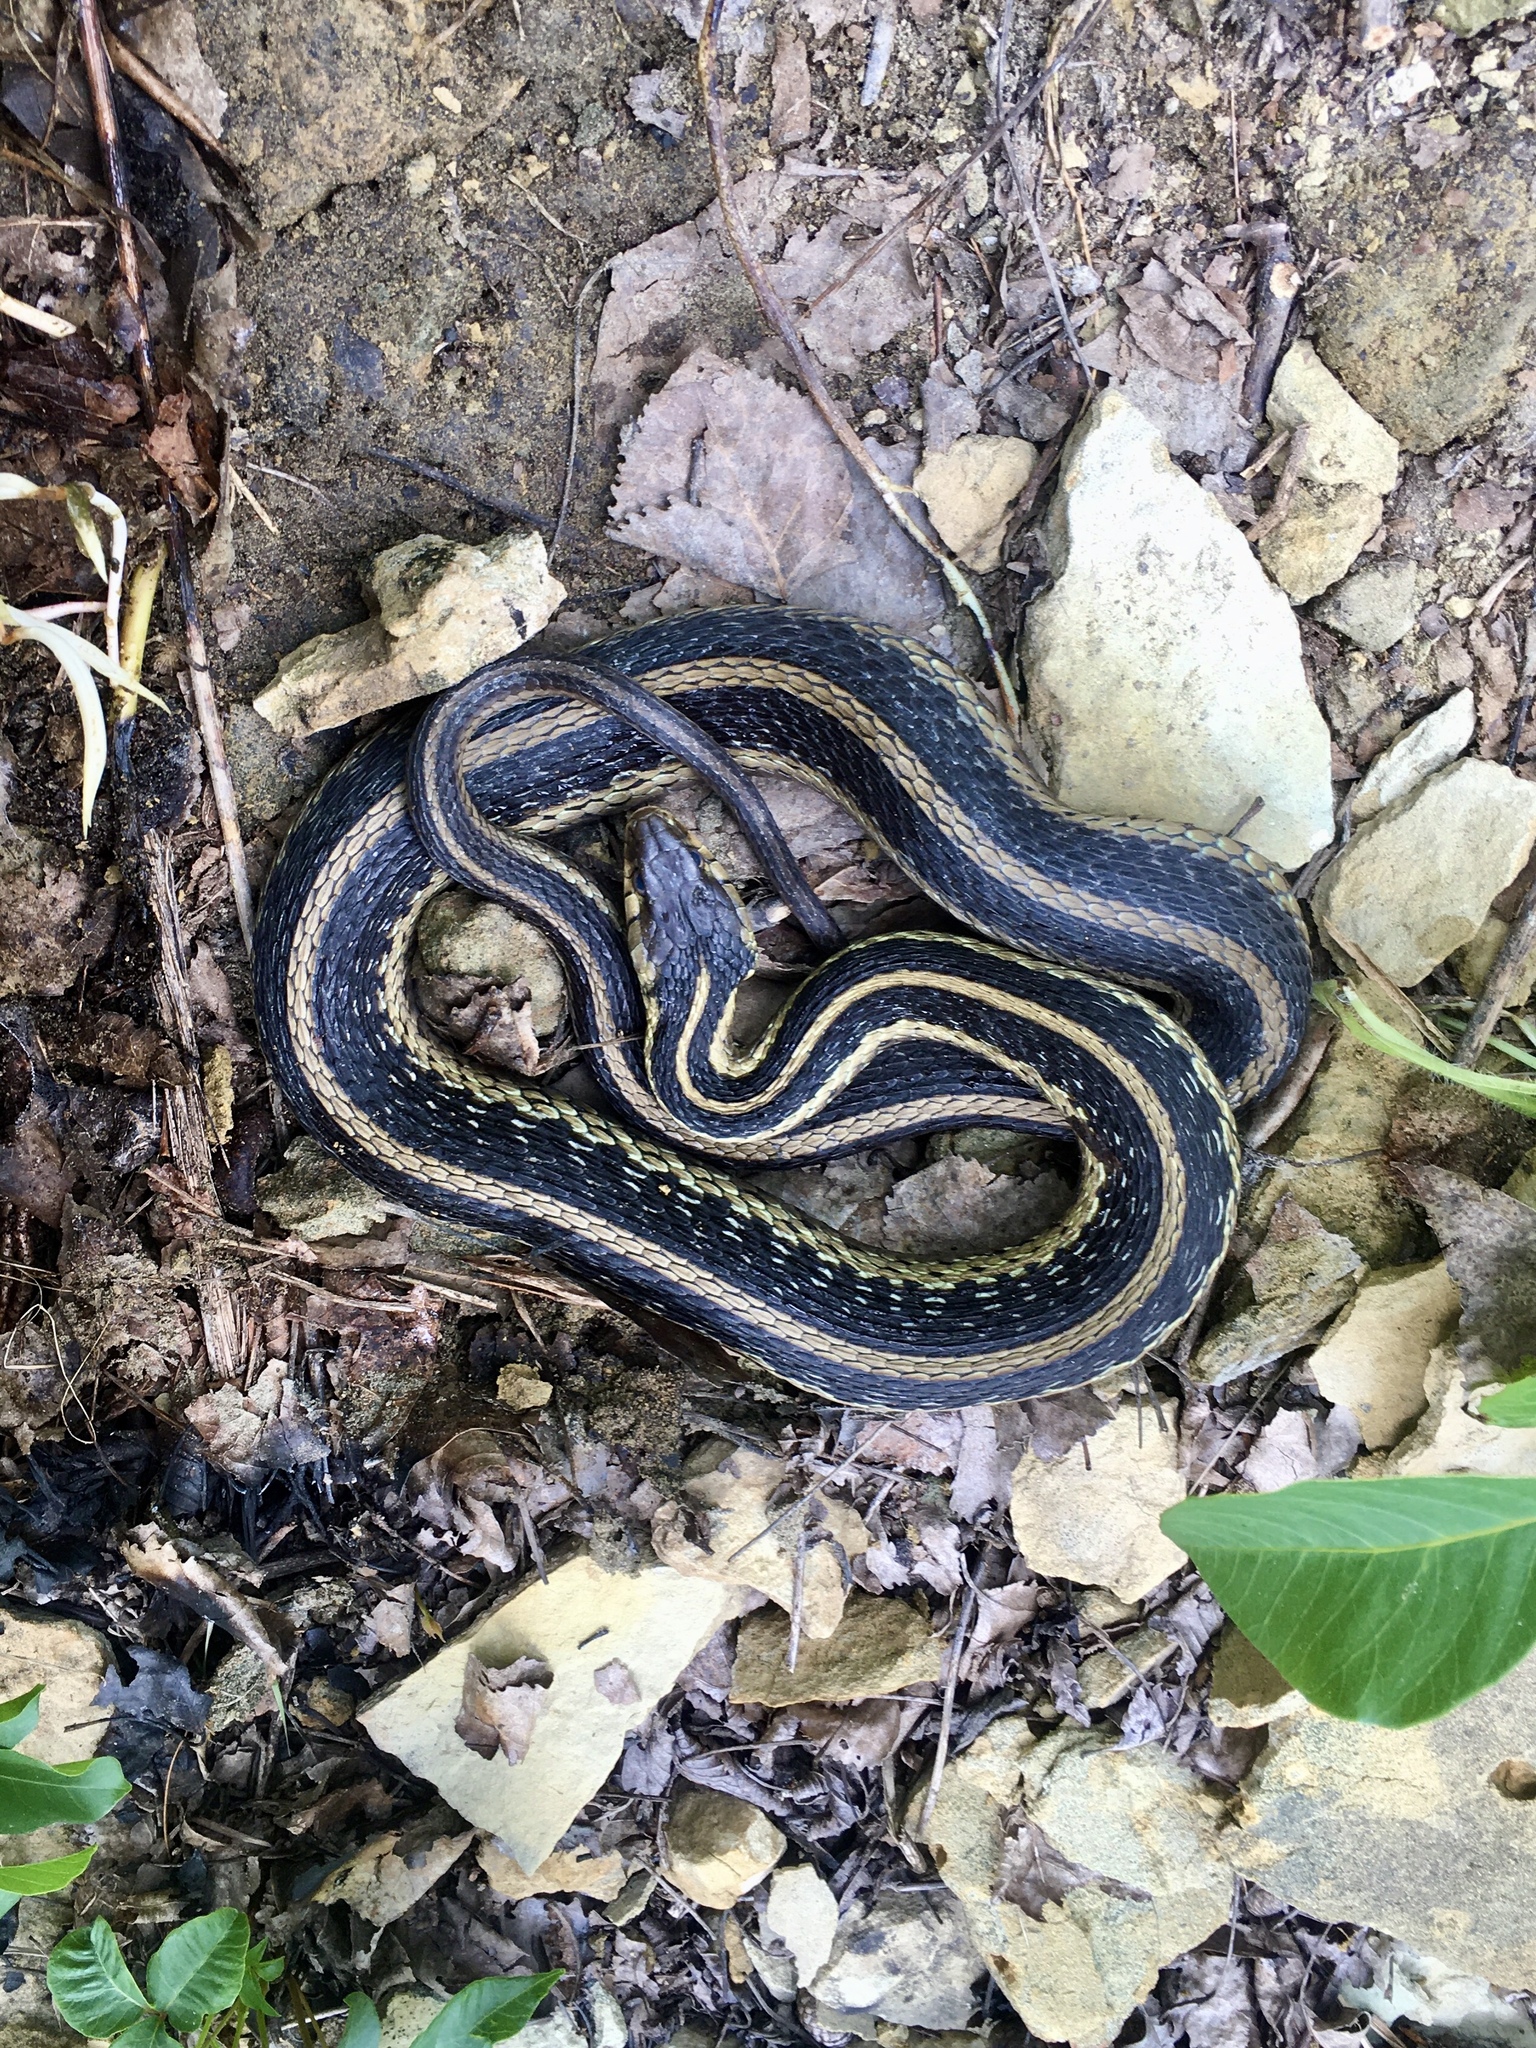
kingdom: Animalia
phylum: Chordata
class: Squamata
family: Colubridae
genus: Thamnophis
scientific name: Thamnophis sirtalis
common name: Common garter snake
